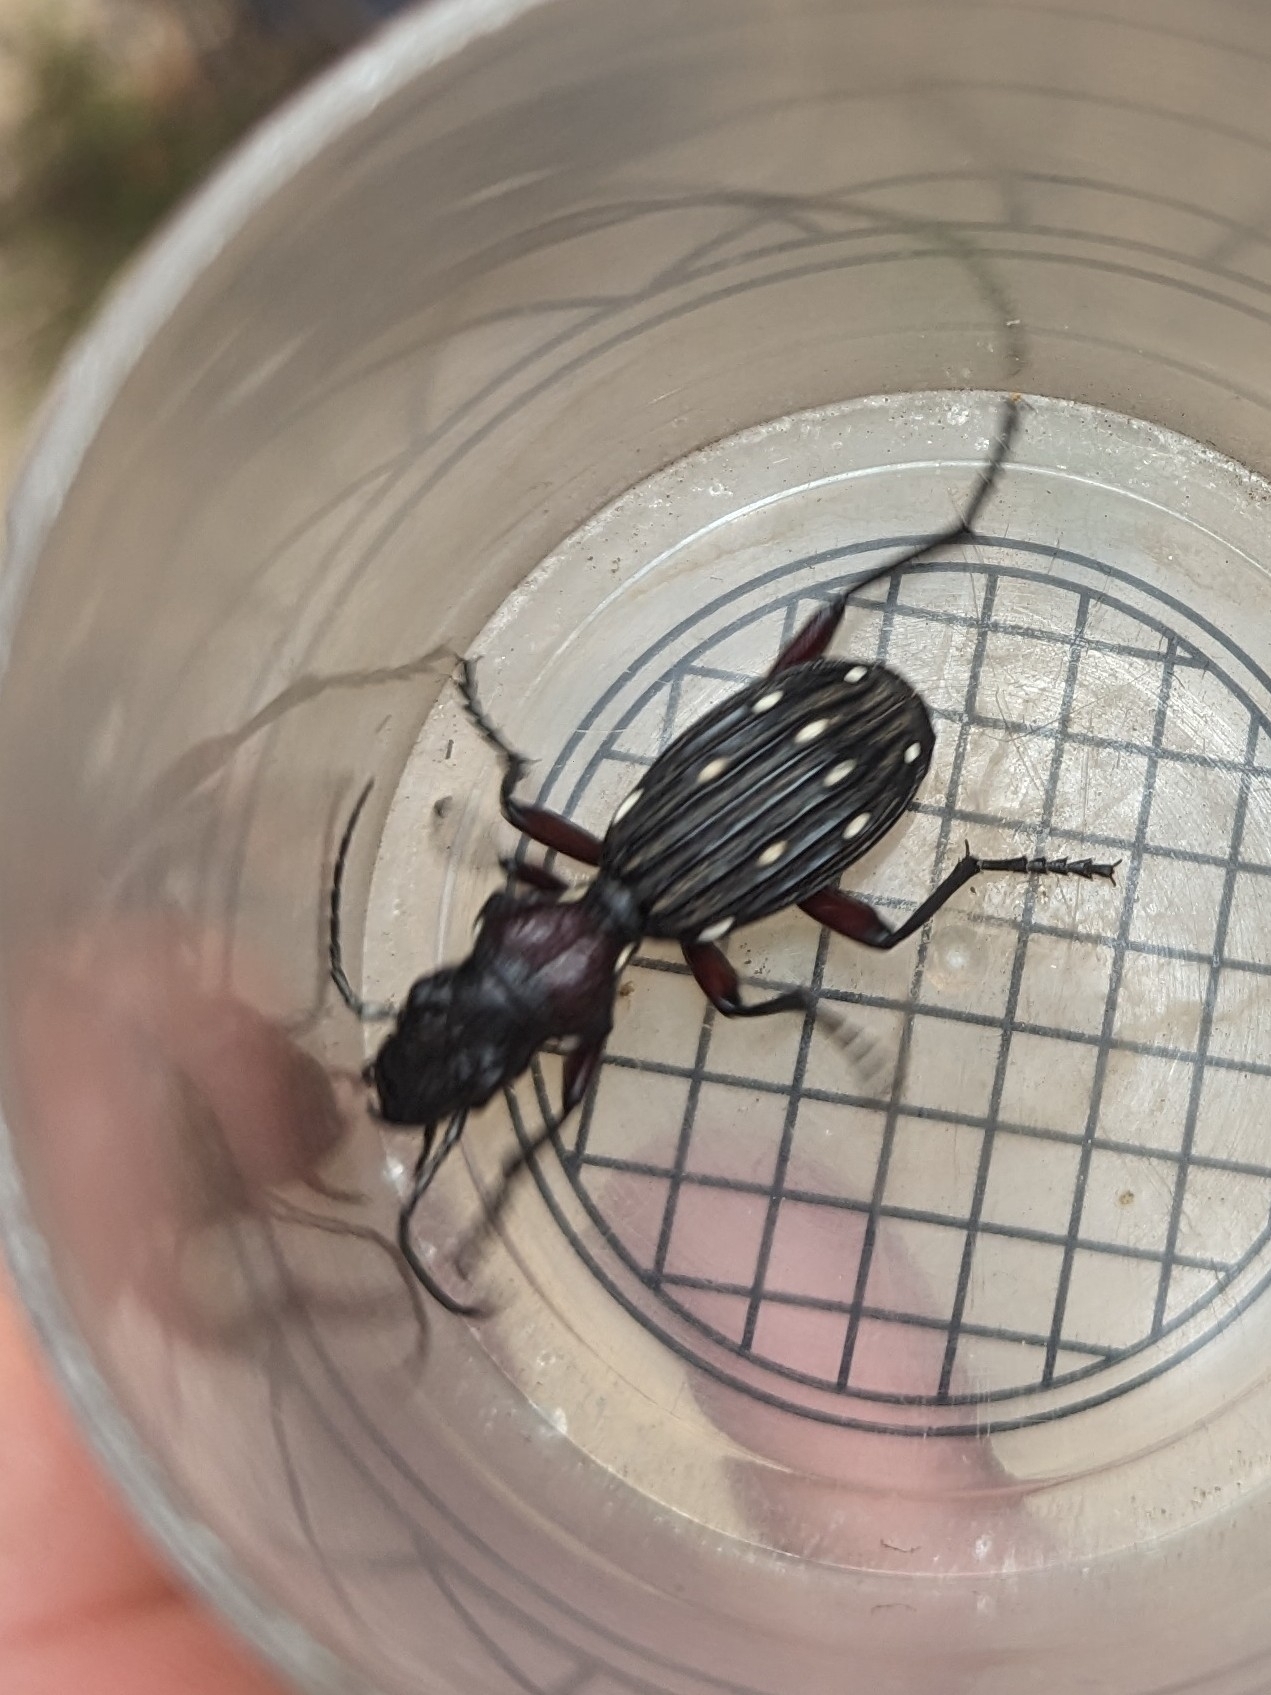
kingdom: Animalia
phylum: Arthropoda
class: Insecta
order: Coleoptera
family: Carabidae
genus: Anthia
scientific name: Anthia decemguttata
